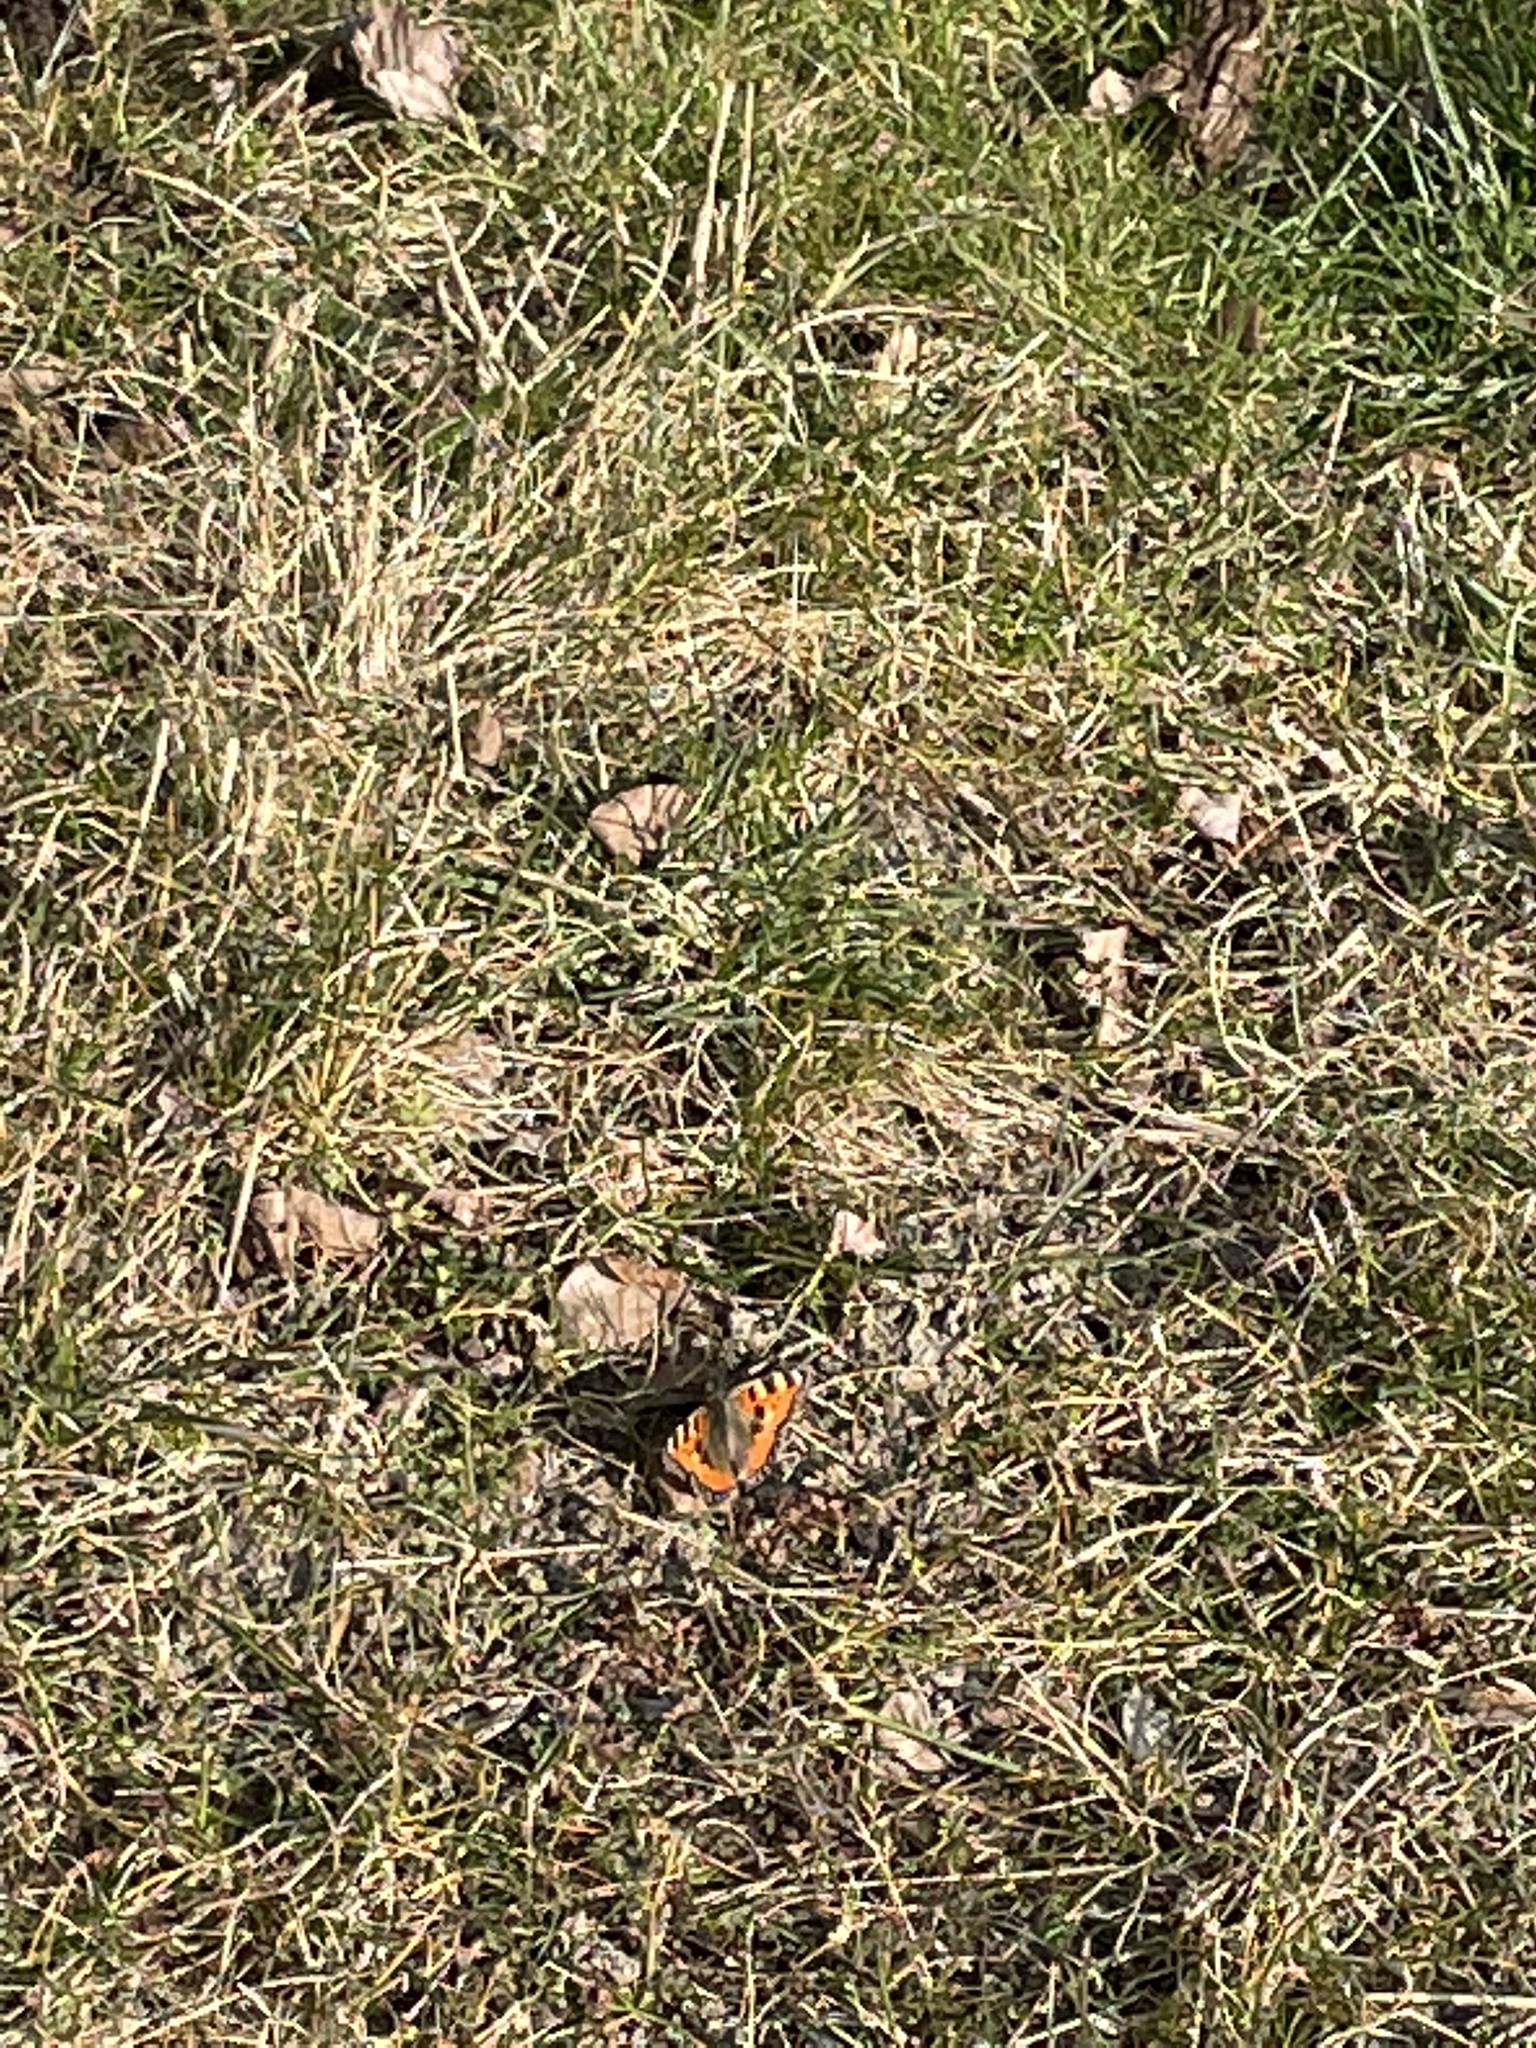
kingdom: Animalia
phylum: Arthropoda
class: Insecta
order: Lepidoptera
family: Nymphalidae
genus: Aglais
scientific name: Aglais urticae
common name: Small tortoiseshell
